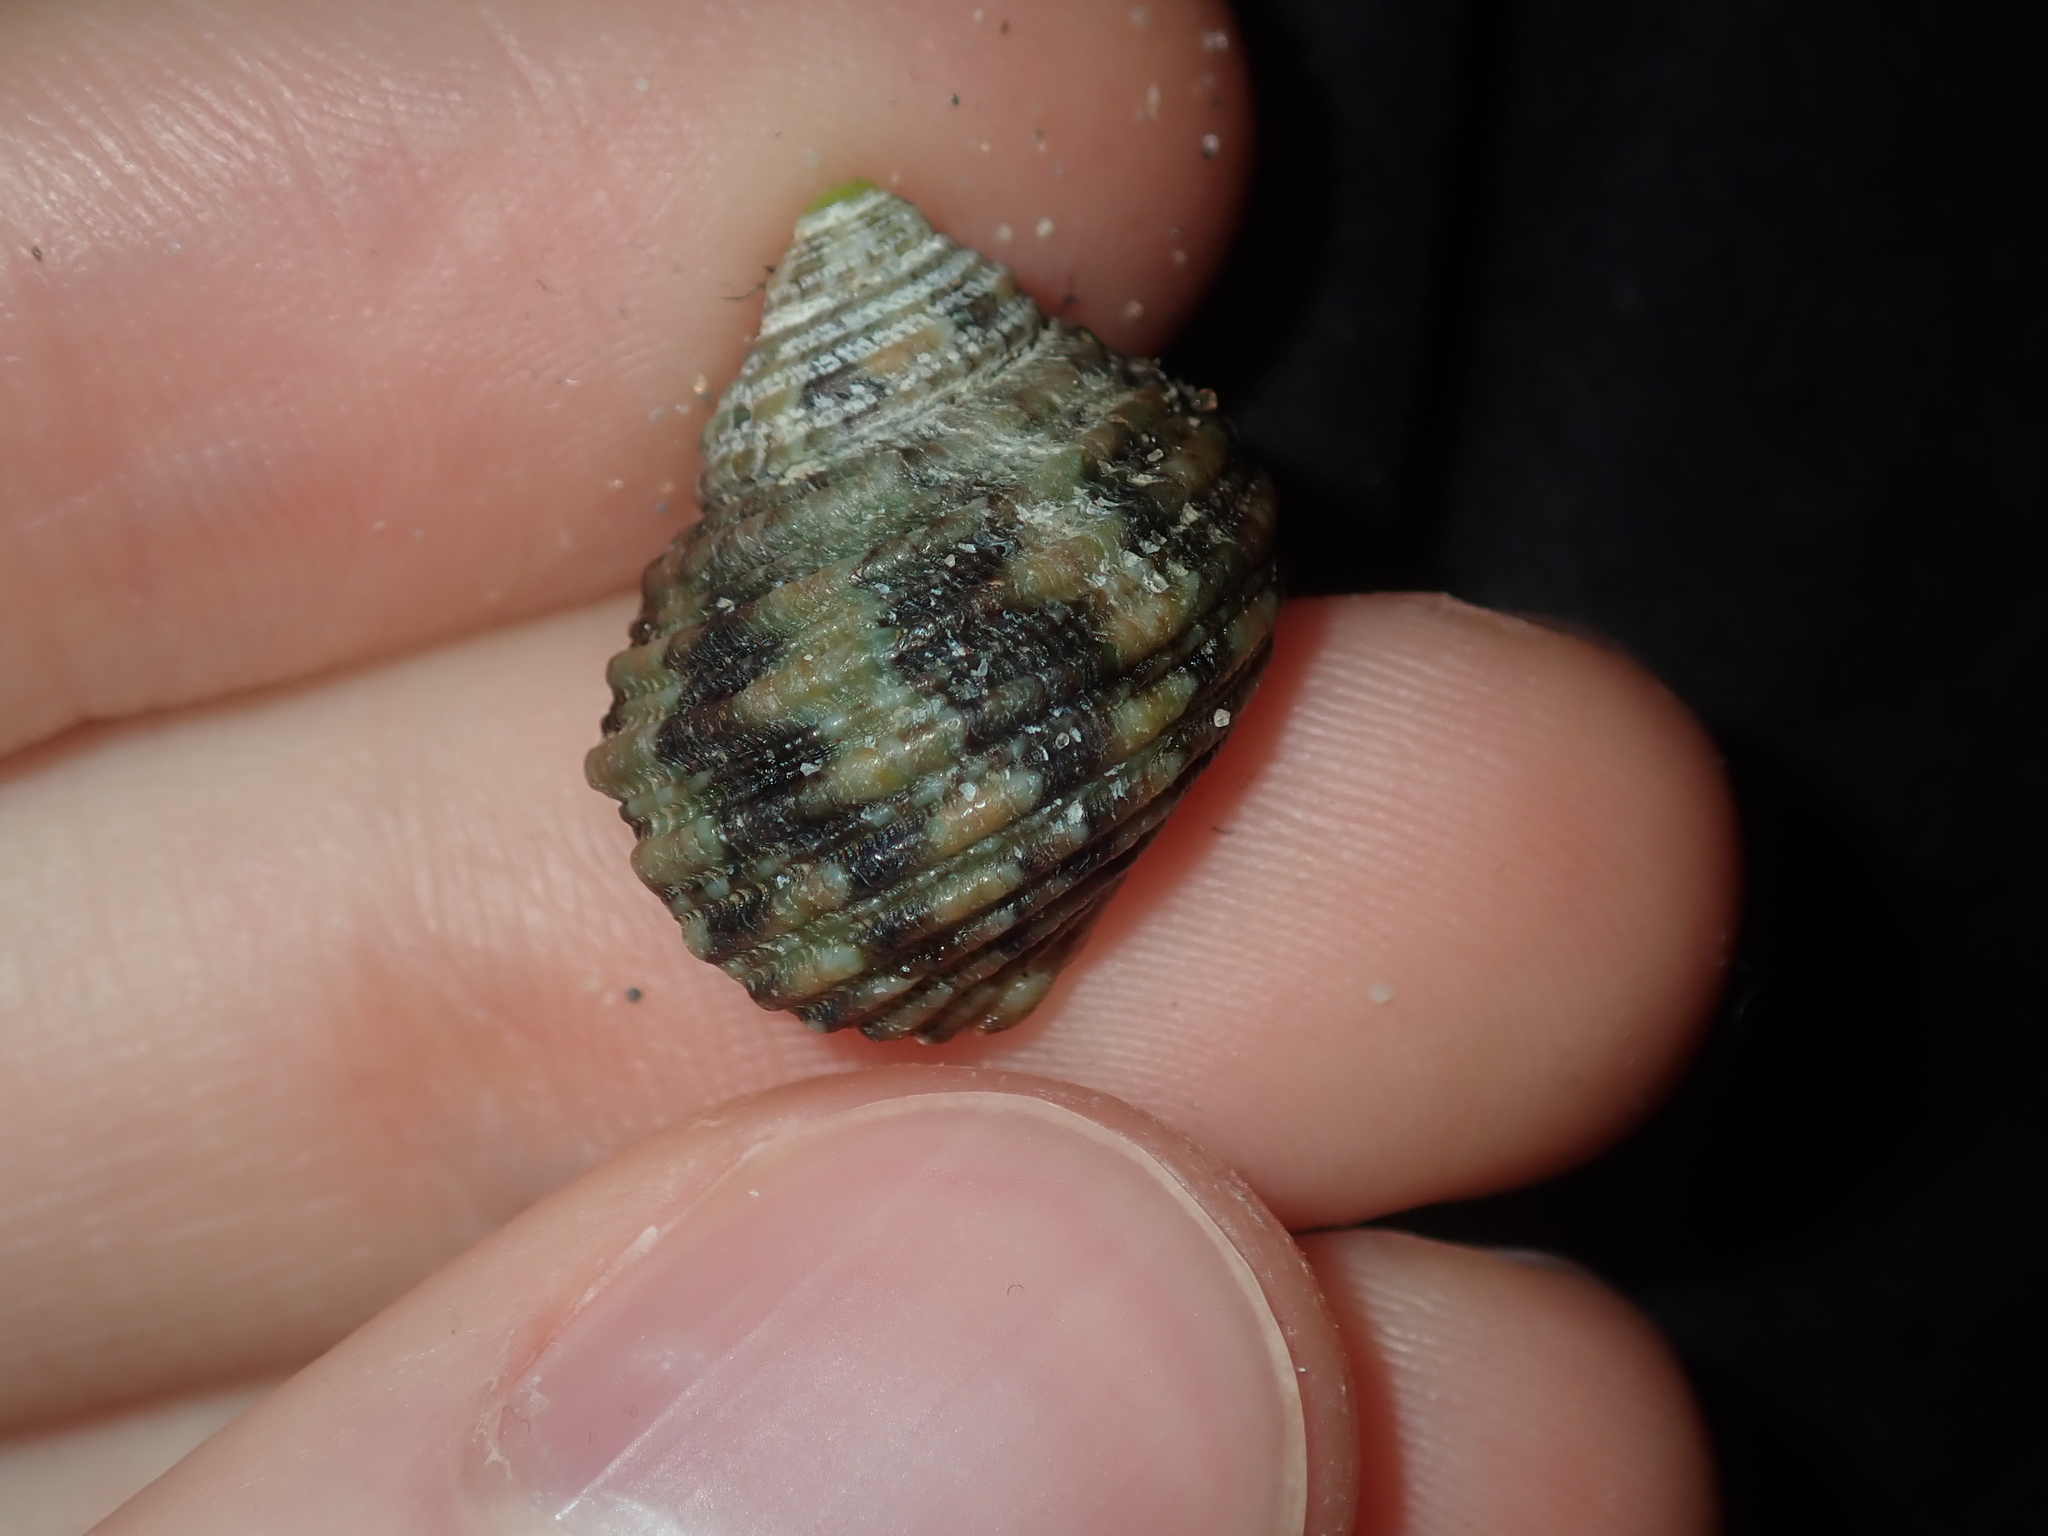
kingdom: Animalia
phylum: Mollusca
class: Gastropoda
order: Trochida
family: Turbinidae
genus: Turbo
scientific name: Turbo kenwilliamsi
